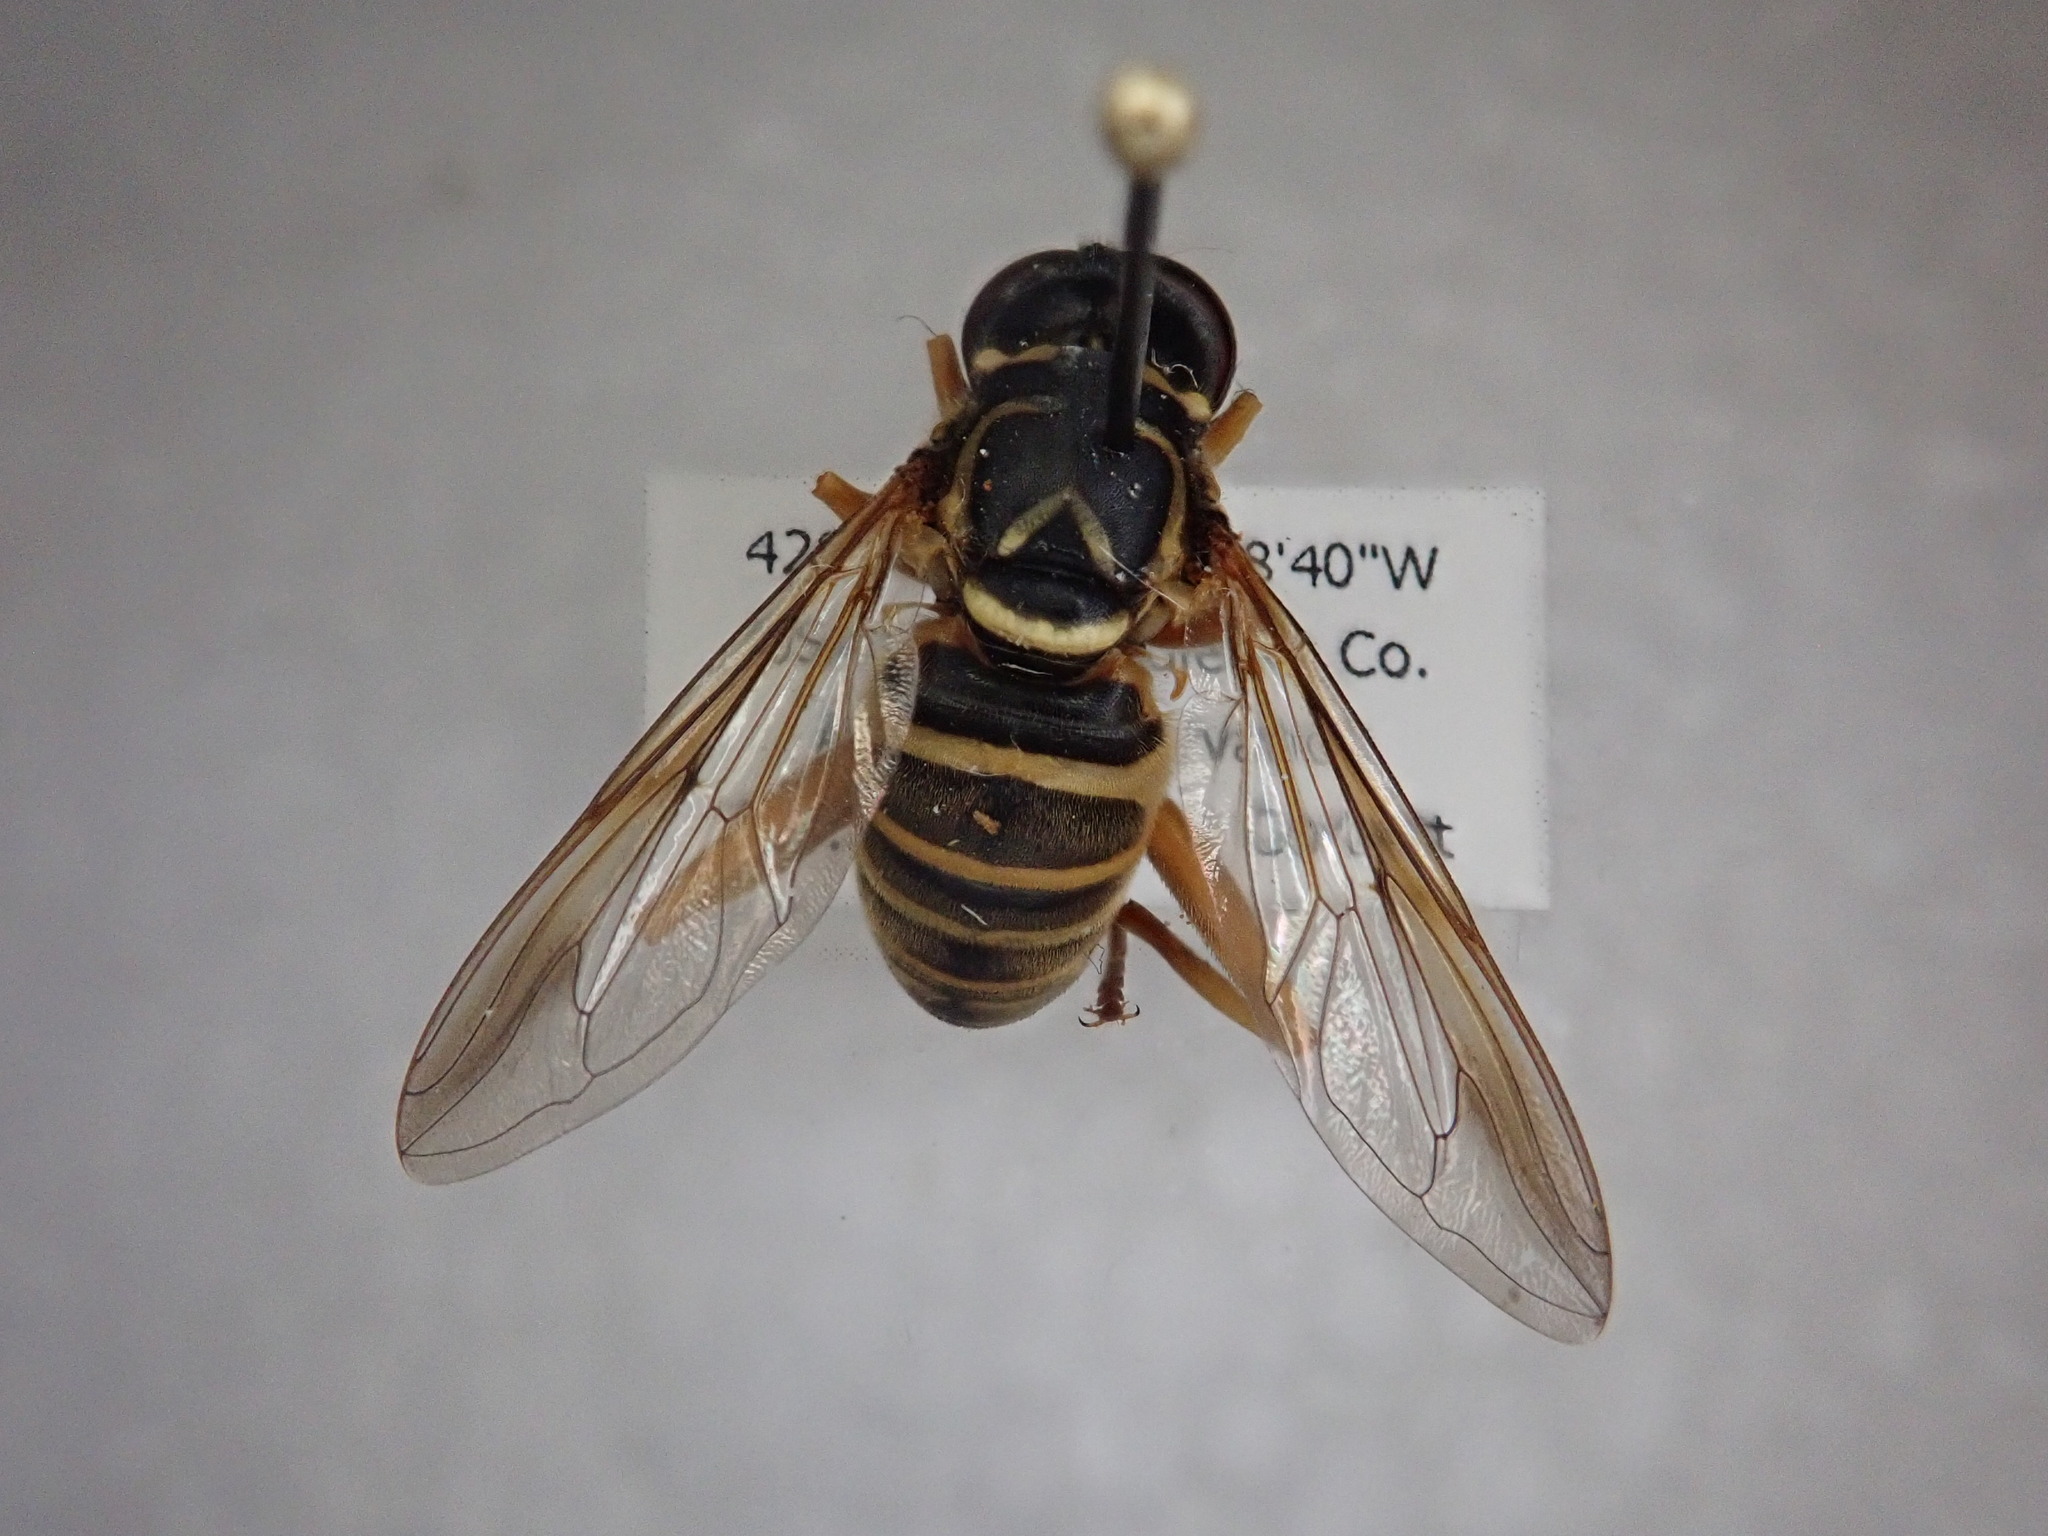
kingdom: Animalia
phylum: Arthropoda
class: Insecta
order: Diptera
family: Syrphidae
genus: Spilomyia
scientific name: Spilomyia longicornis
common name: Eastern hornet fly
